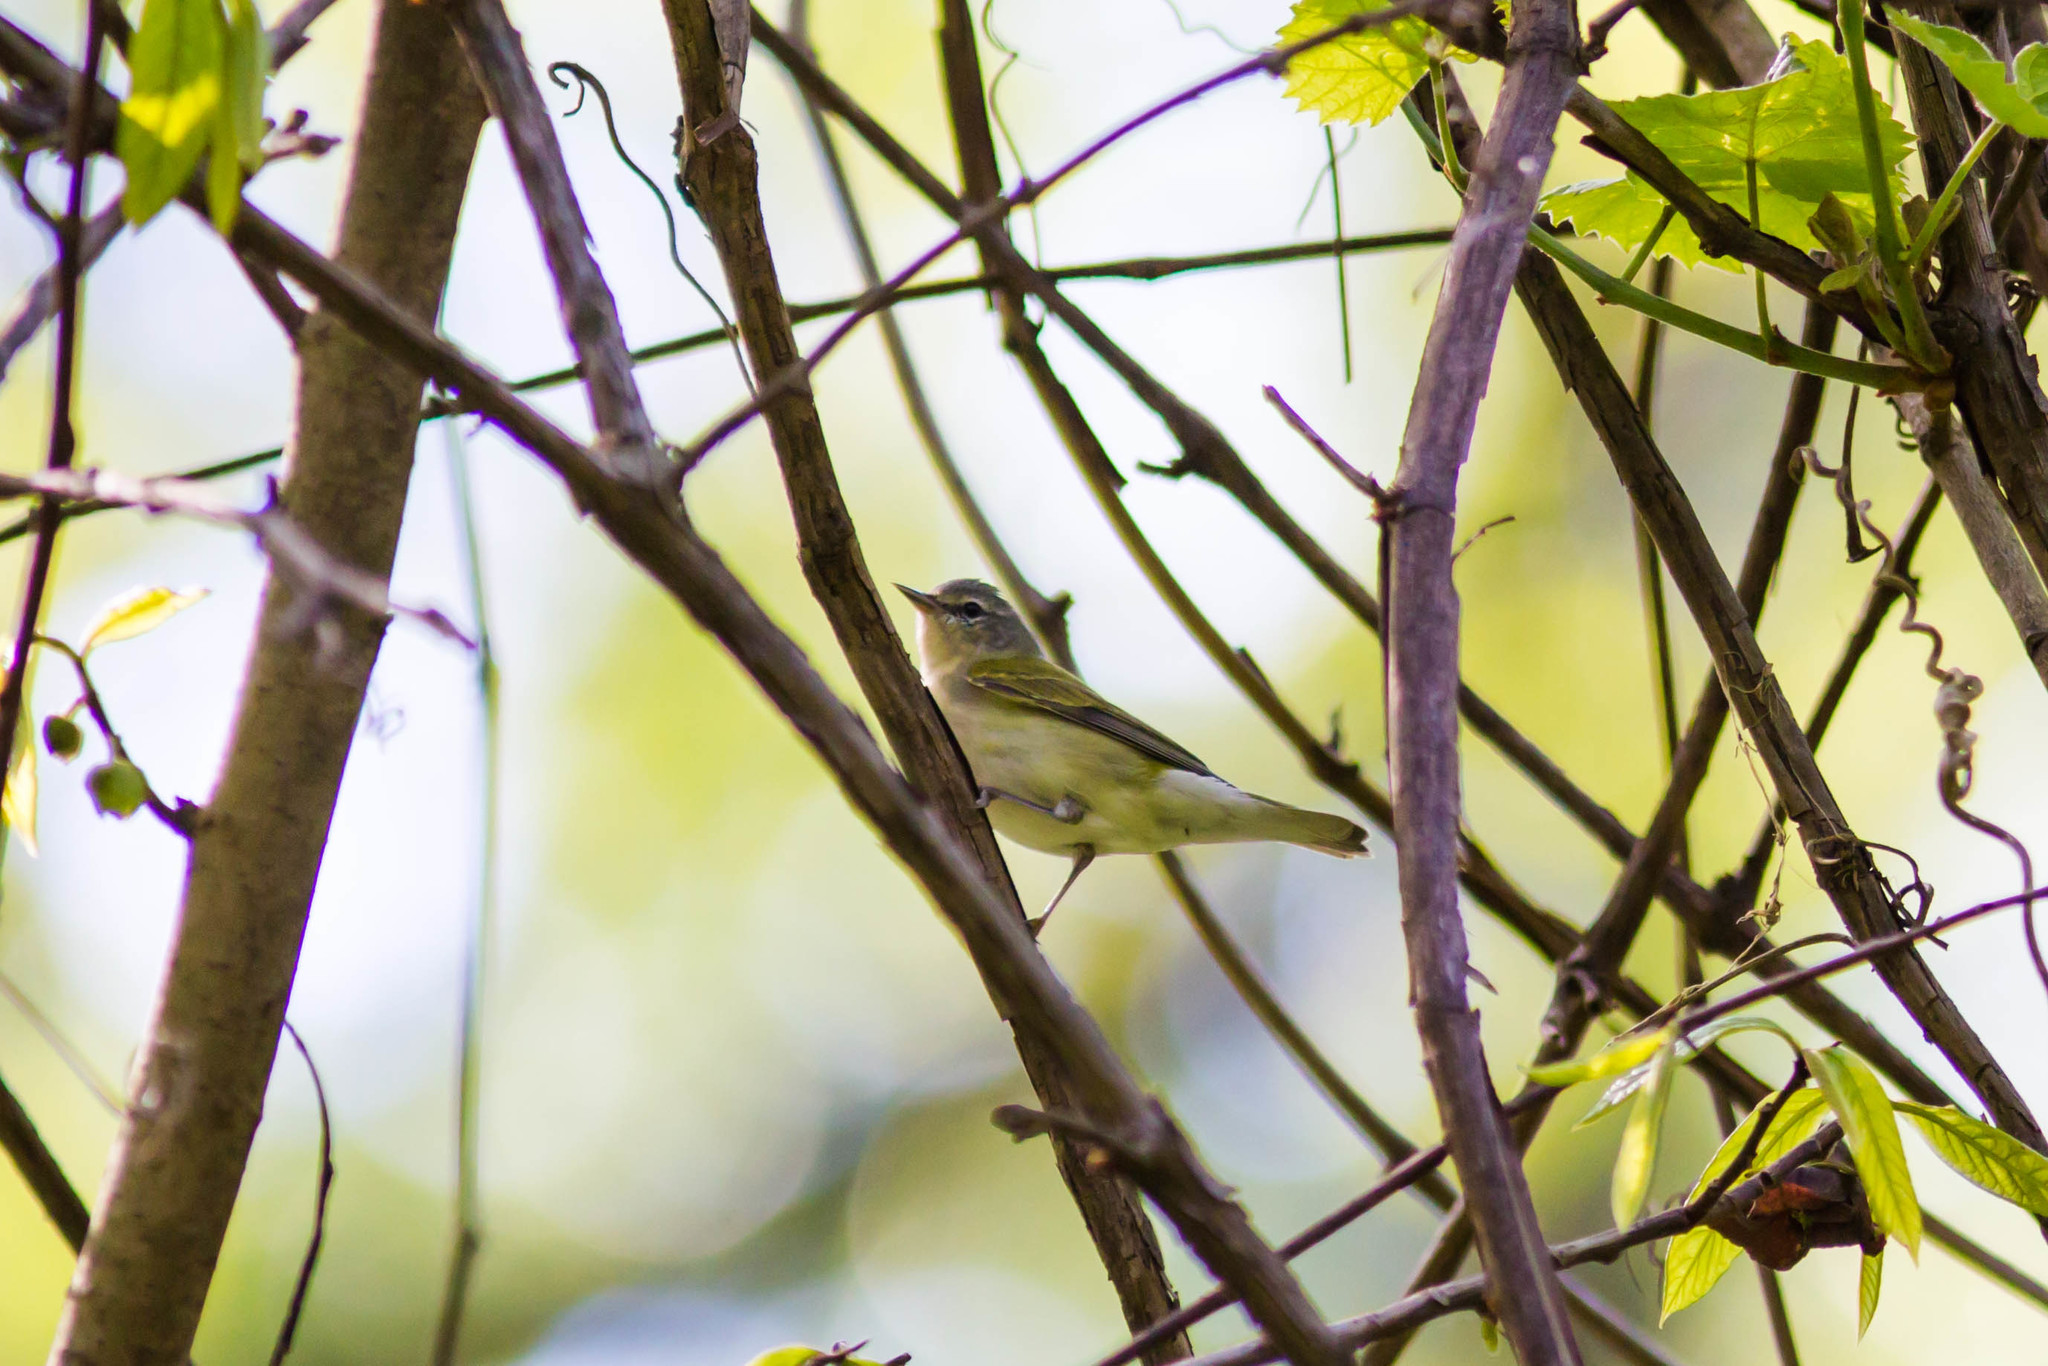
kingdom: Animalia
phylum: Chordata
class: Aves
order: Passeriformes
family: Parulidae
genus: Leiothlypis
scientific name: Leiothlypis peregrina
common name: Tennessee warbler
